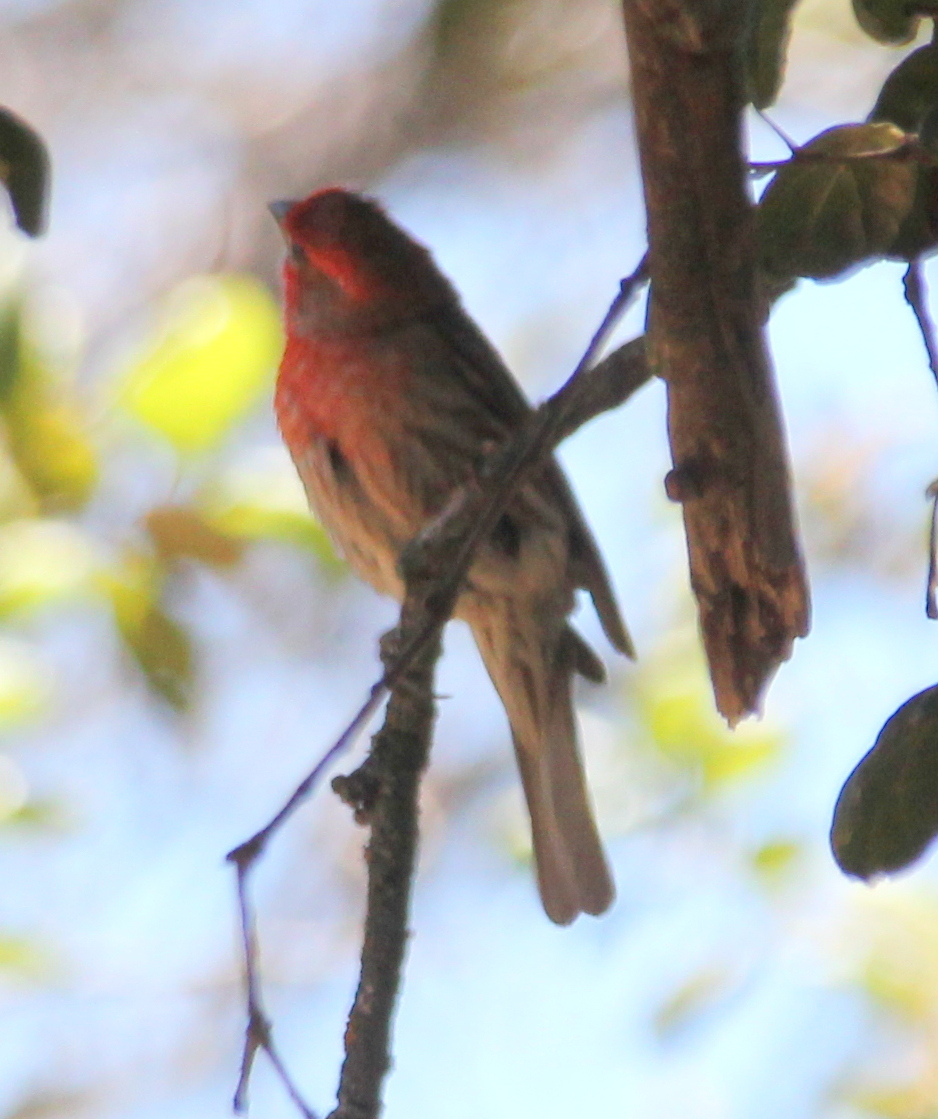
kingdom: Animalia
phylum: Chordata
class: Aves
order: Passeriformes
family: Fringillidae
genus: Haemorhous
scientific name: Haemorhous mexicanus
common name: House finch
